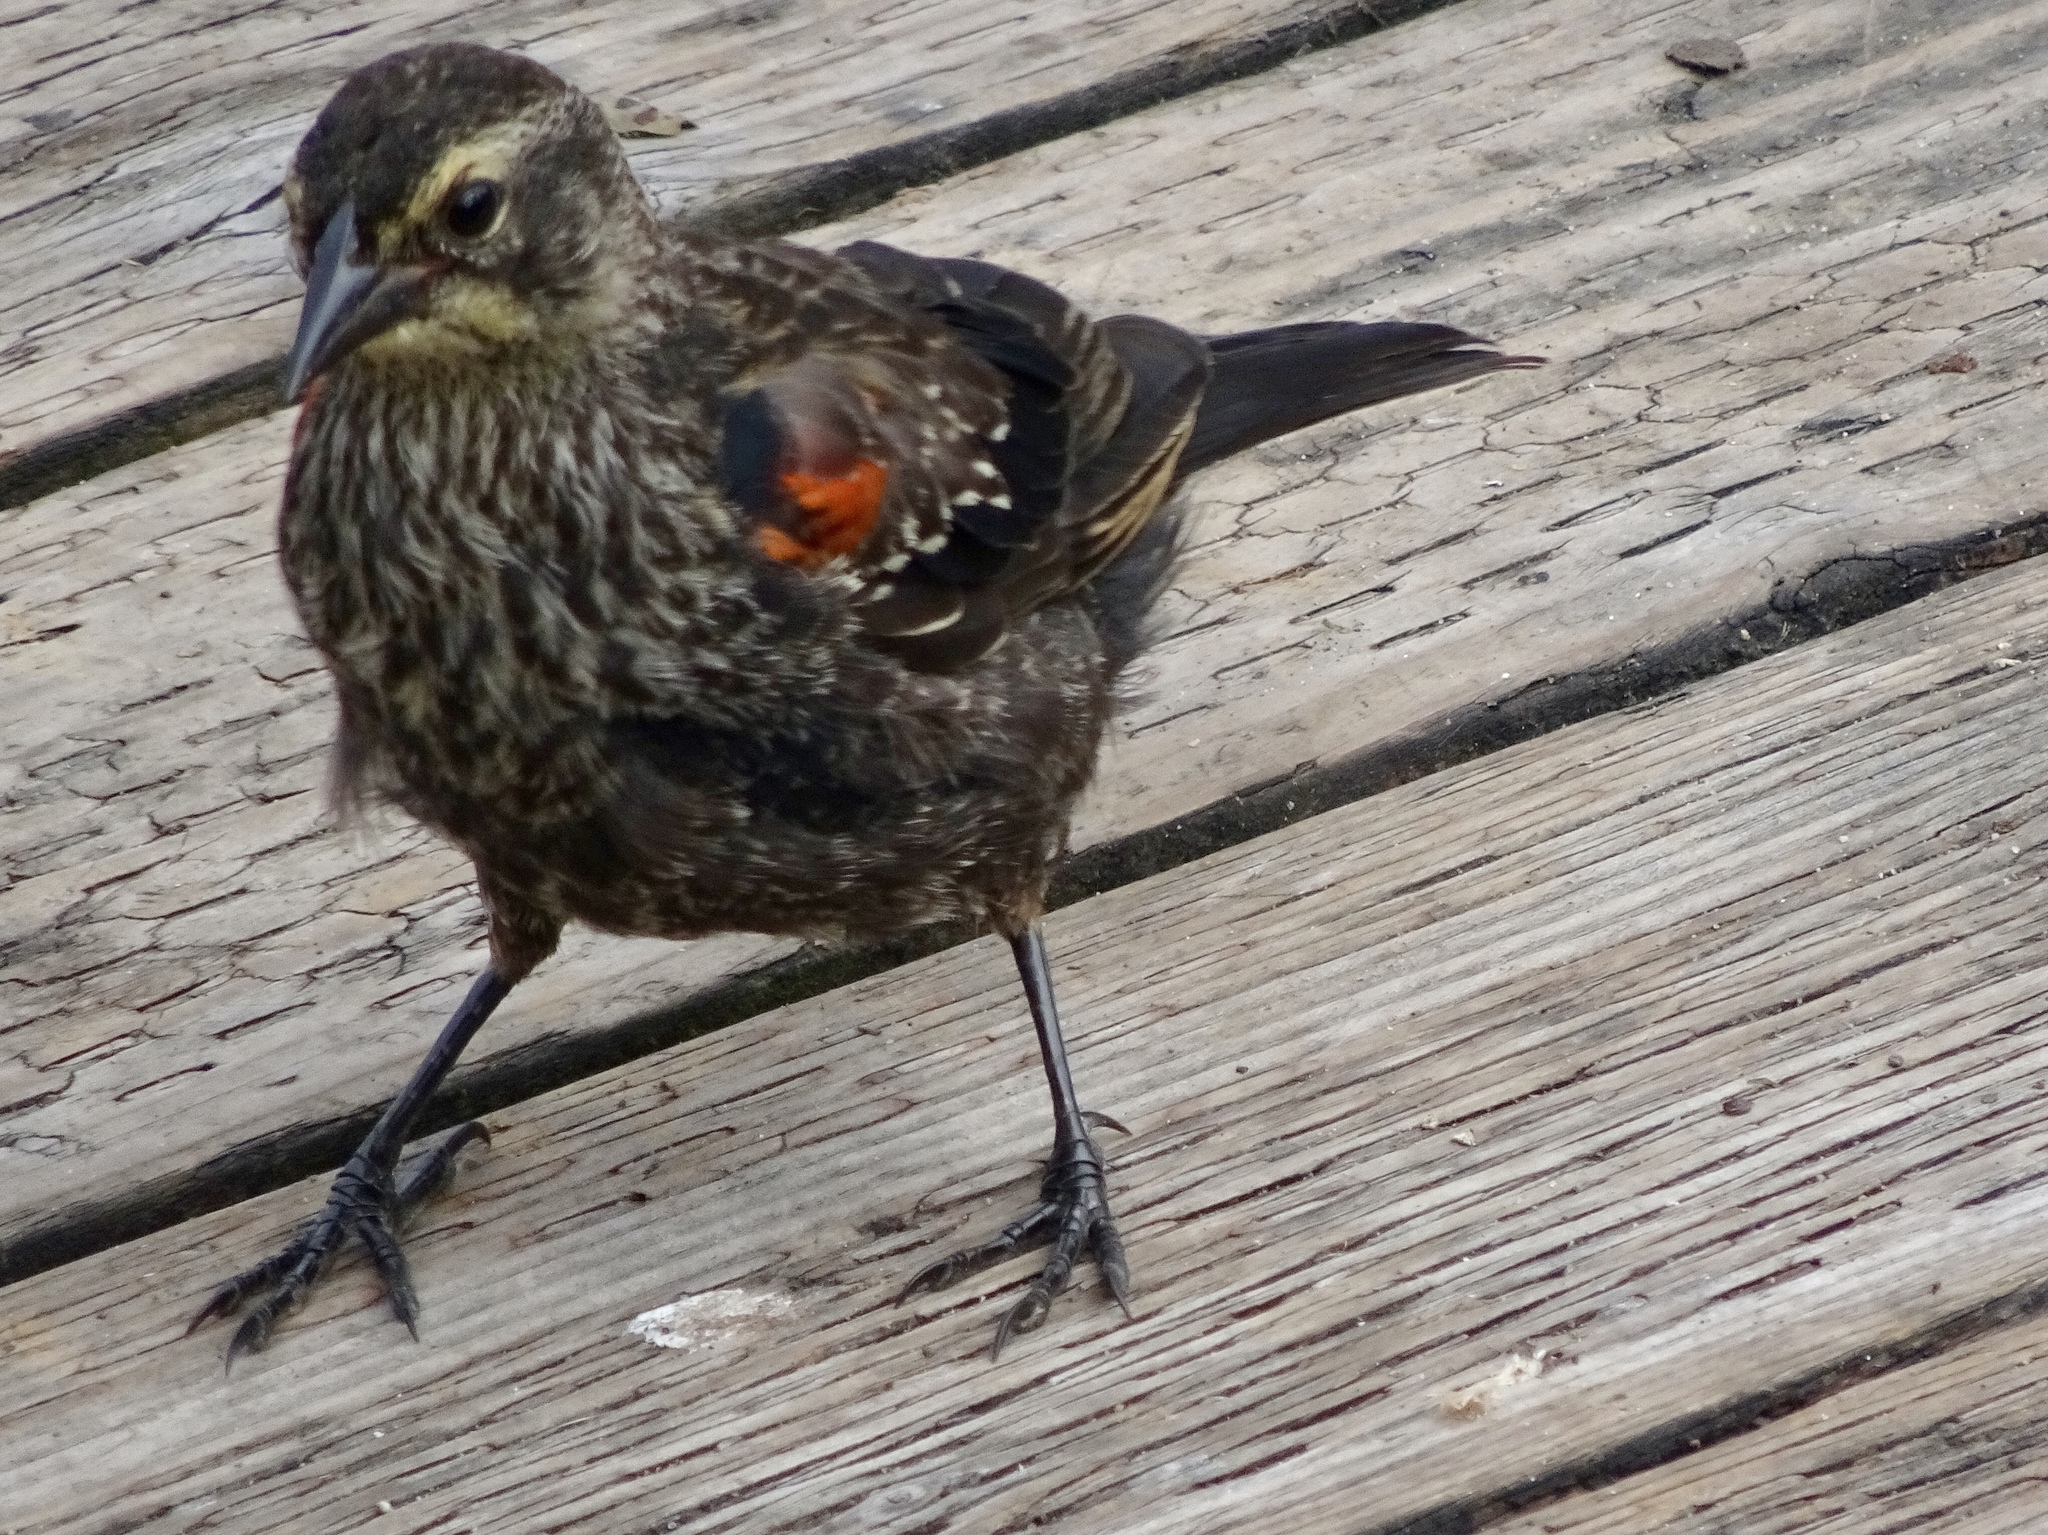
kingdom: Animalia
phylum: Chordata
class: Aves
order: Passeriformes
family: Icteridae
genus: Agelaius
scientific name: Agelaius phoeniceus
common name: Red-winged blackbird
